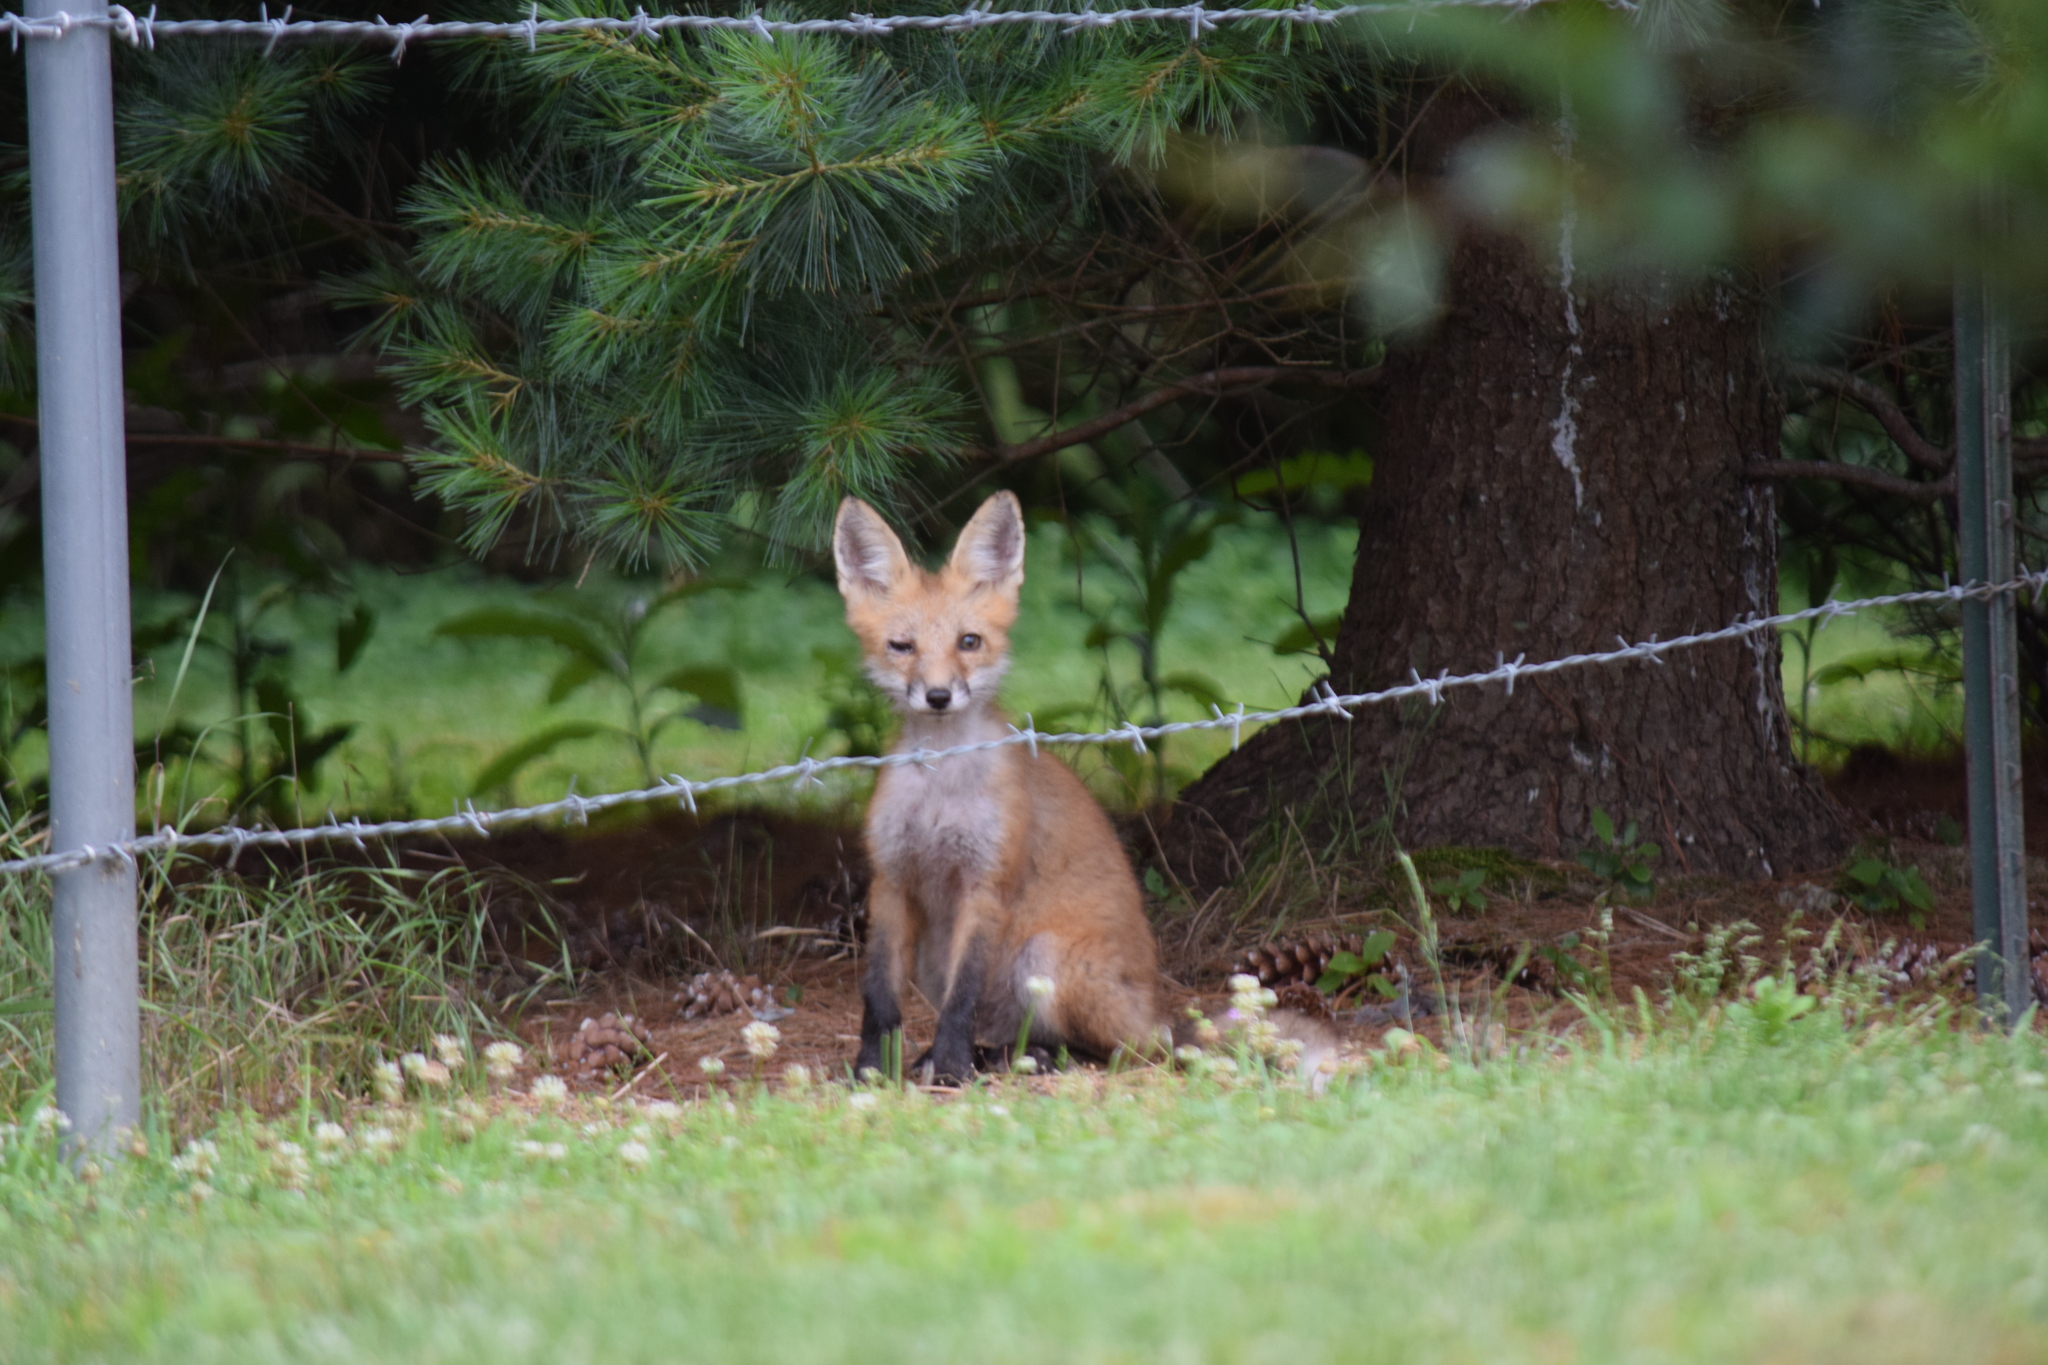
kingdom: Animalia
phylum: Chordata
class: Mammalia
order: Carnivora
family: Canidae
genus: Vulpes
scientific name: Vulpes vulpes
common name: Red fox
